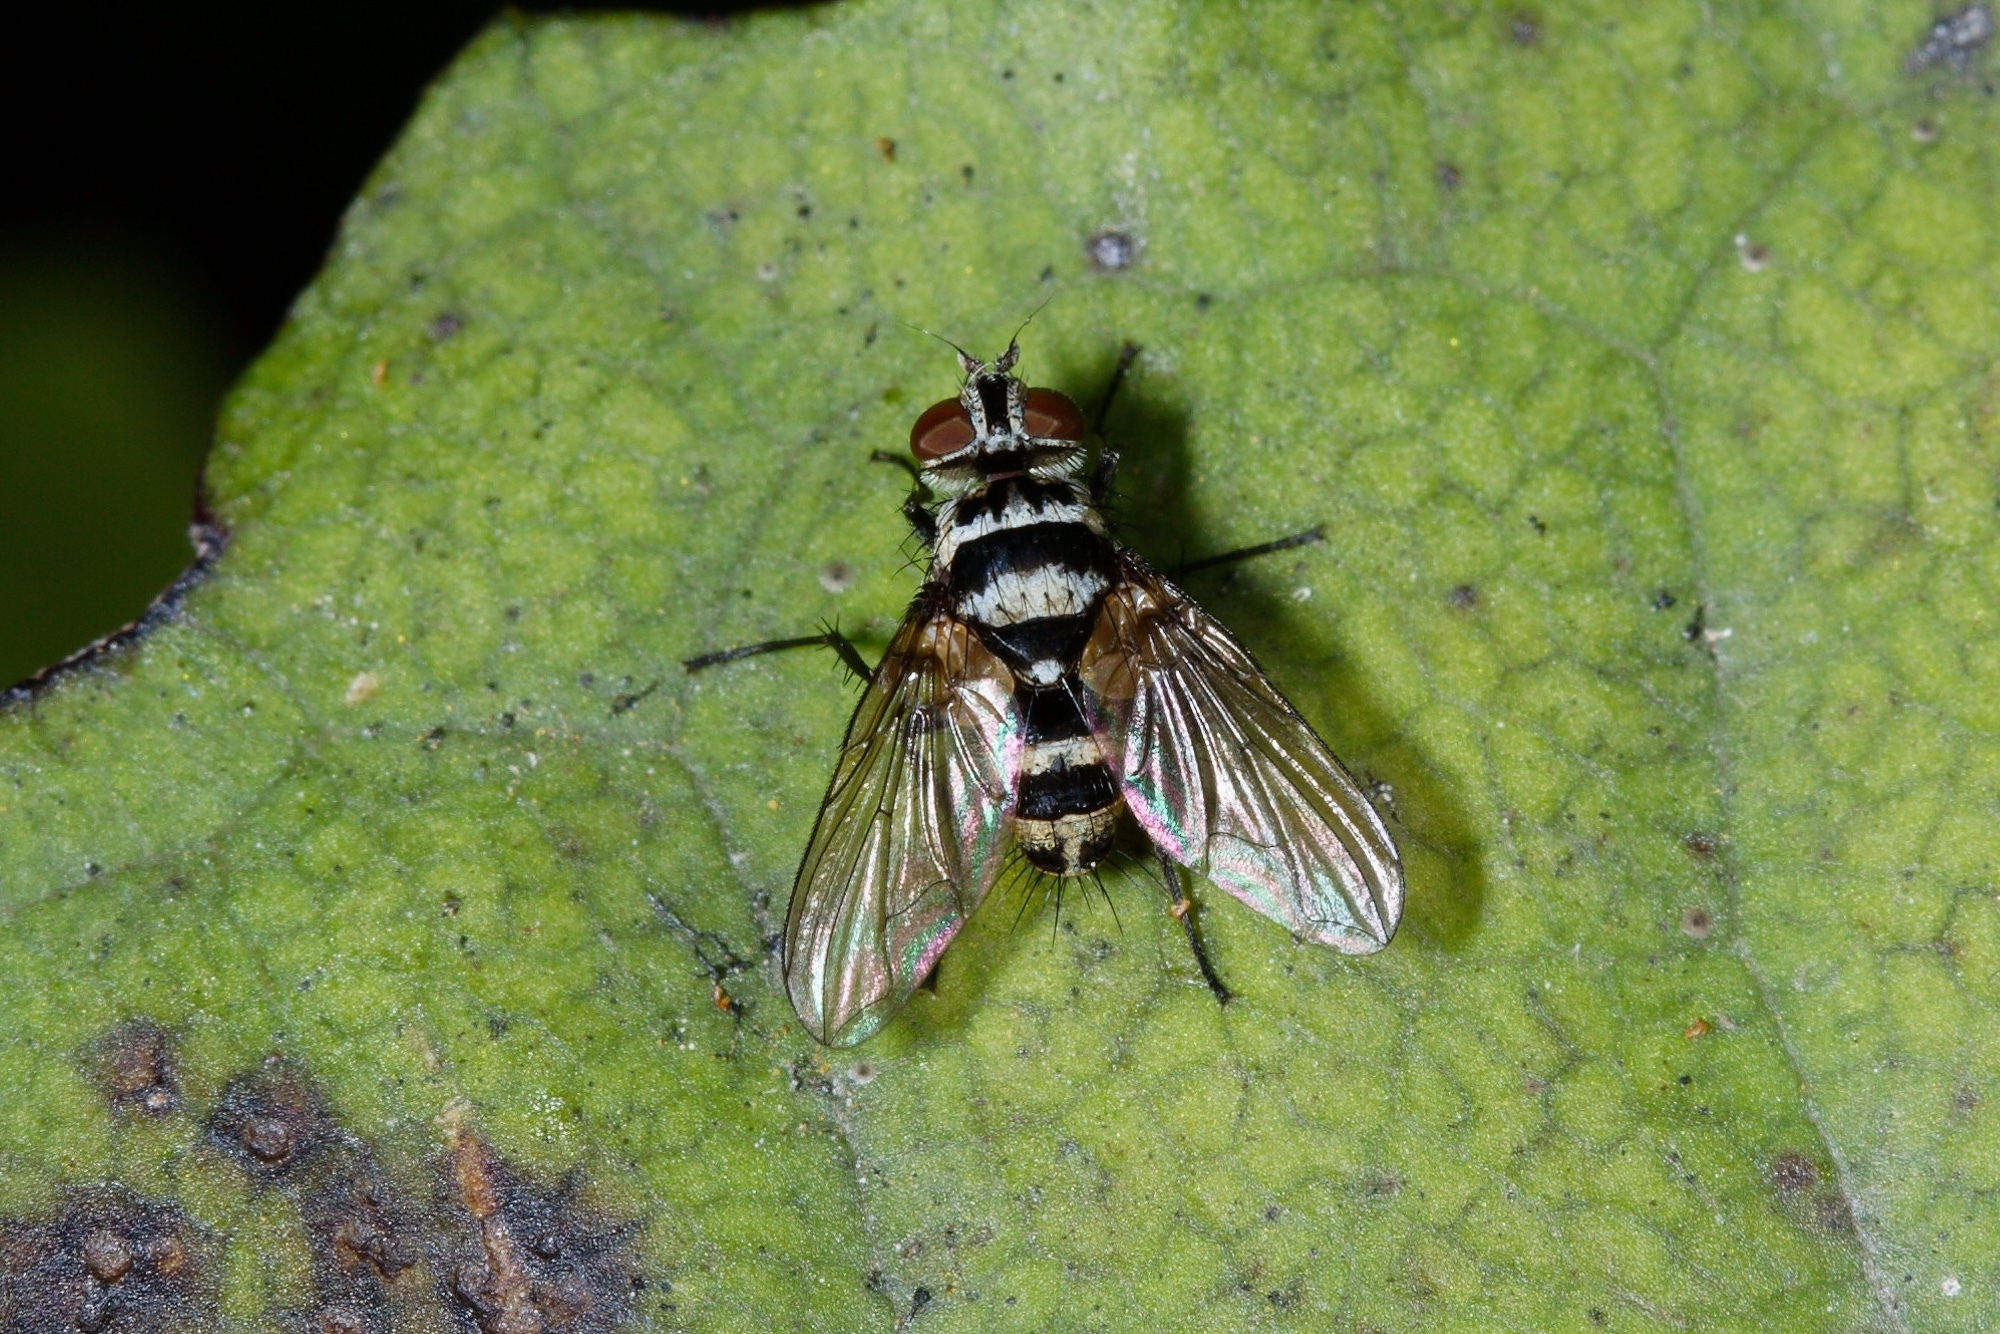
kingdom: Animalia
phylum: Arthropoda
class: Insecta
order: Diptera
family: Tachinidae
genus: Trigonospila
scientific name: Trigonospila brevifacies
